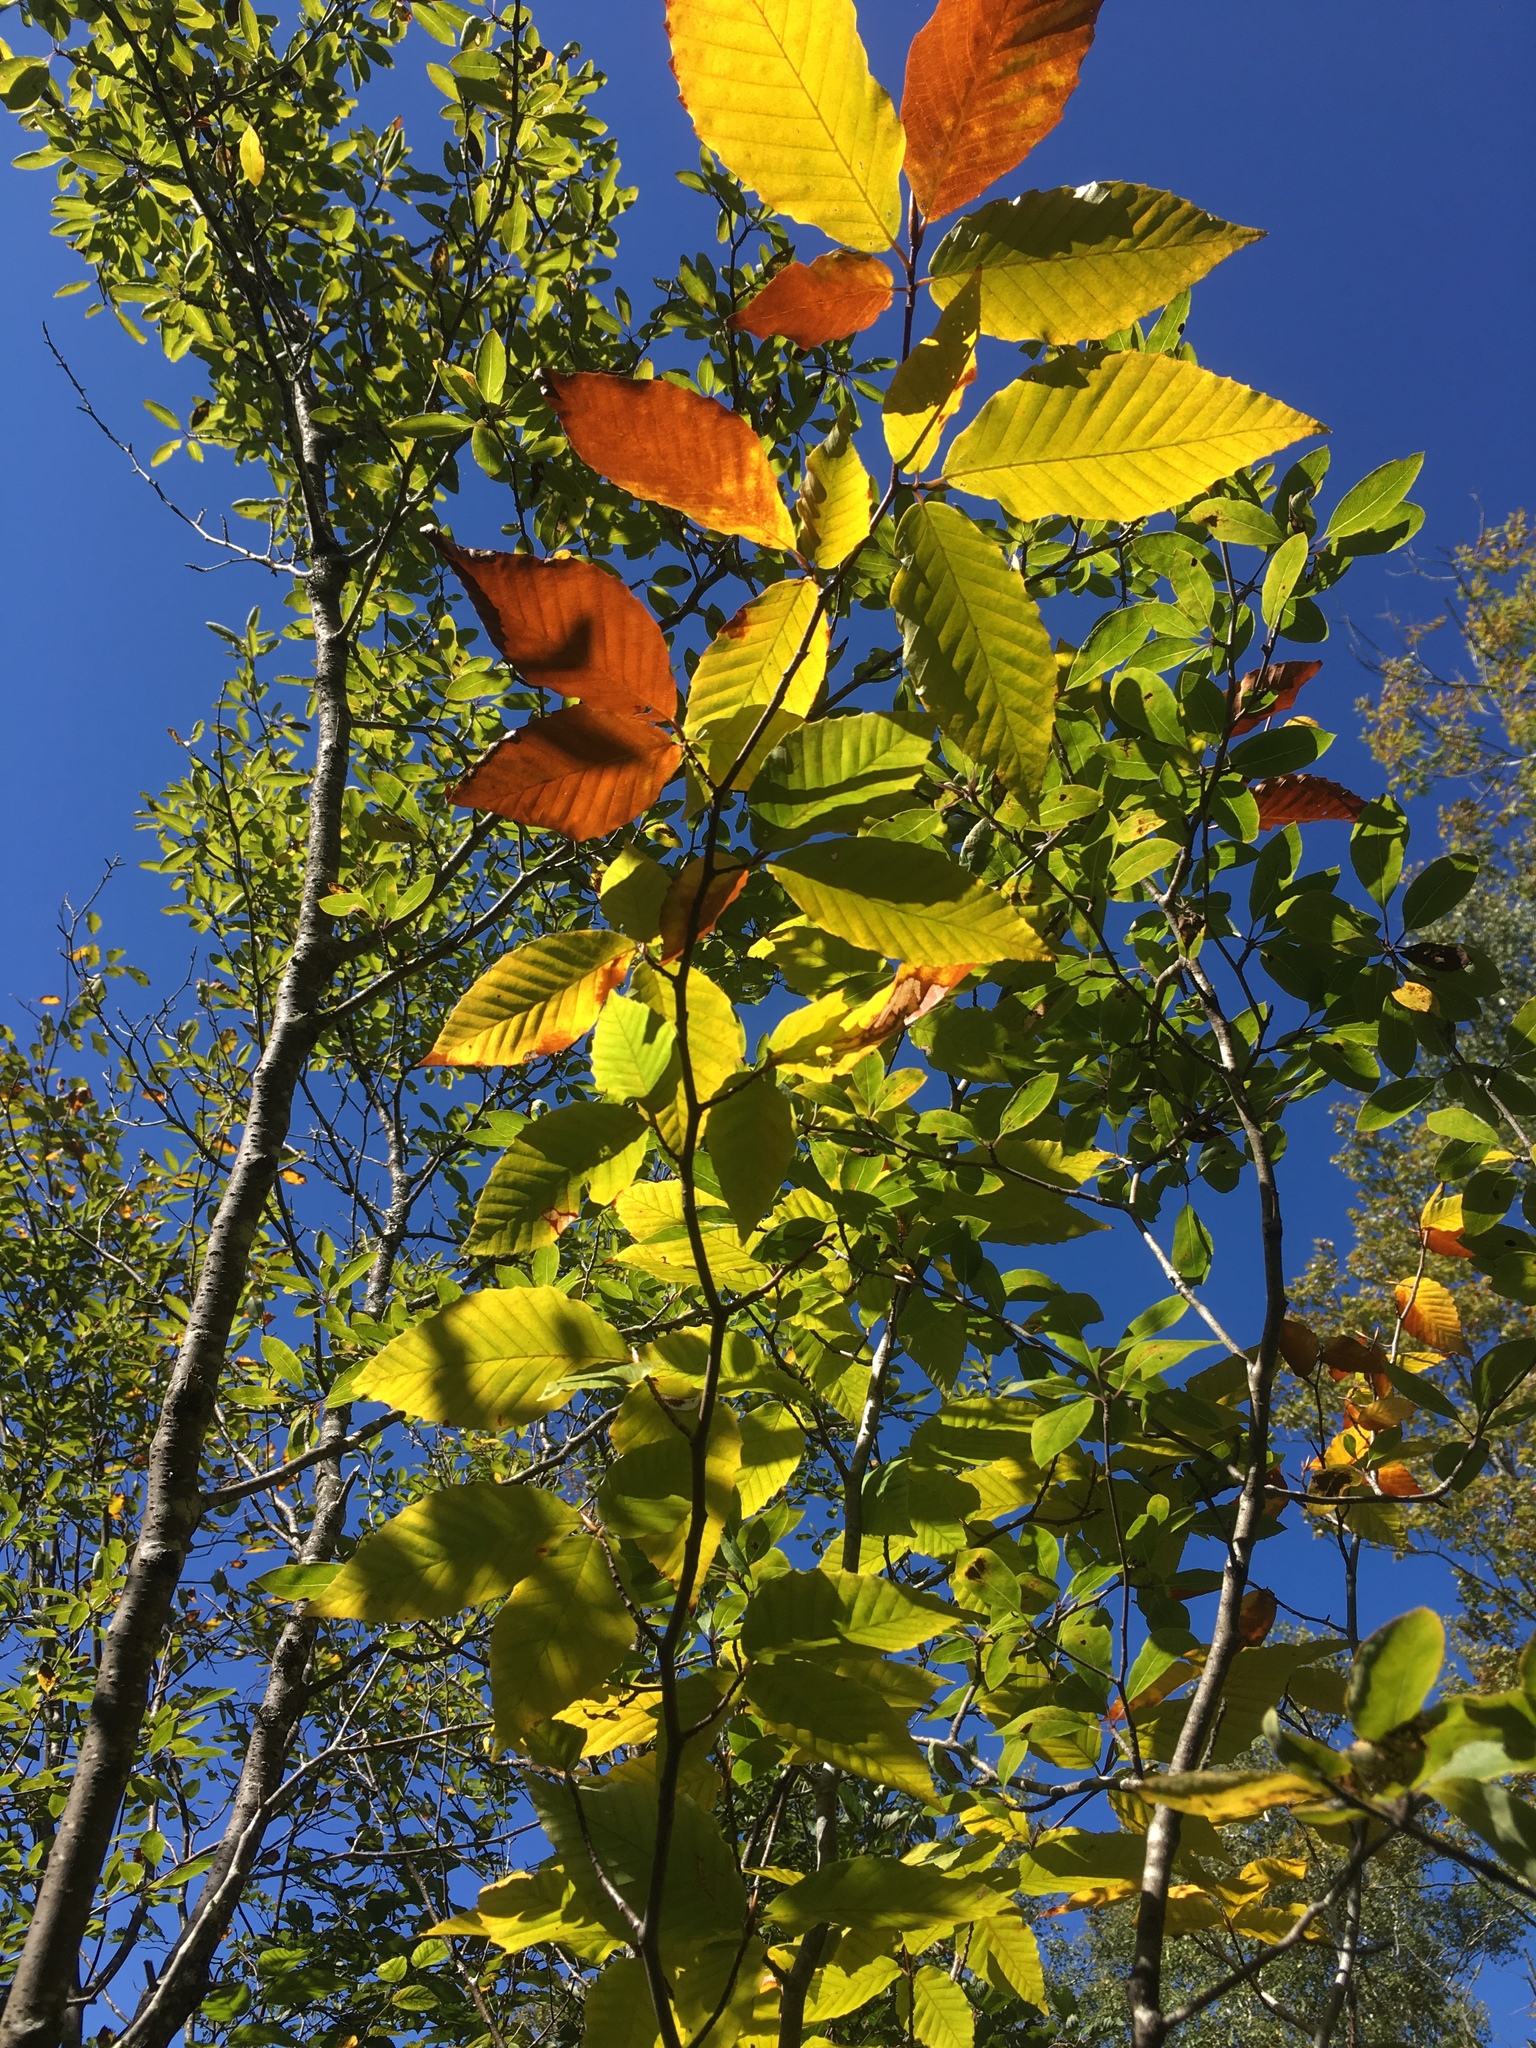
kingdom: Plantae
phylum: Tracheophyta
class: Magnoliopsida
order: Fagales
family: Fagaceae
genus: Fagus
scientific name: Fagus grandifolia
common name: American beech
